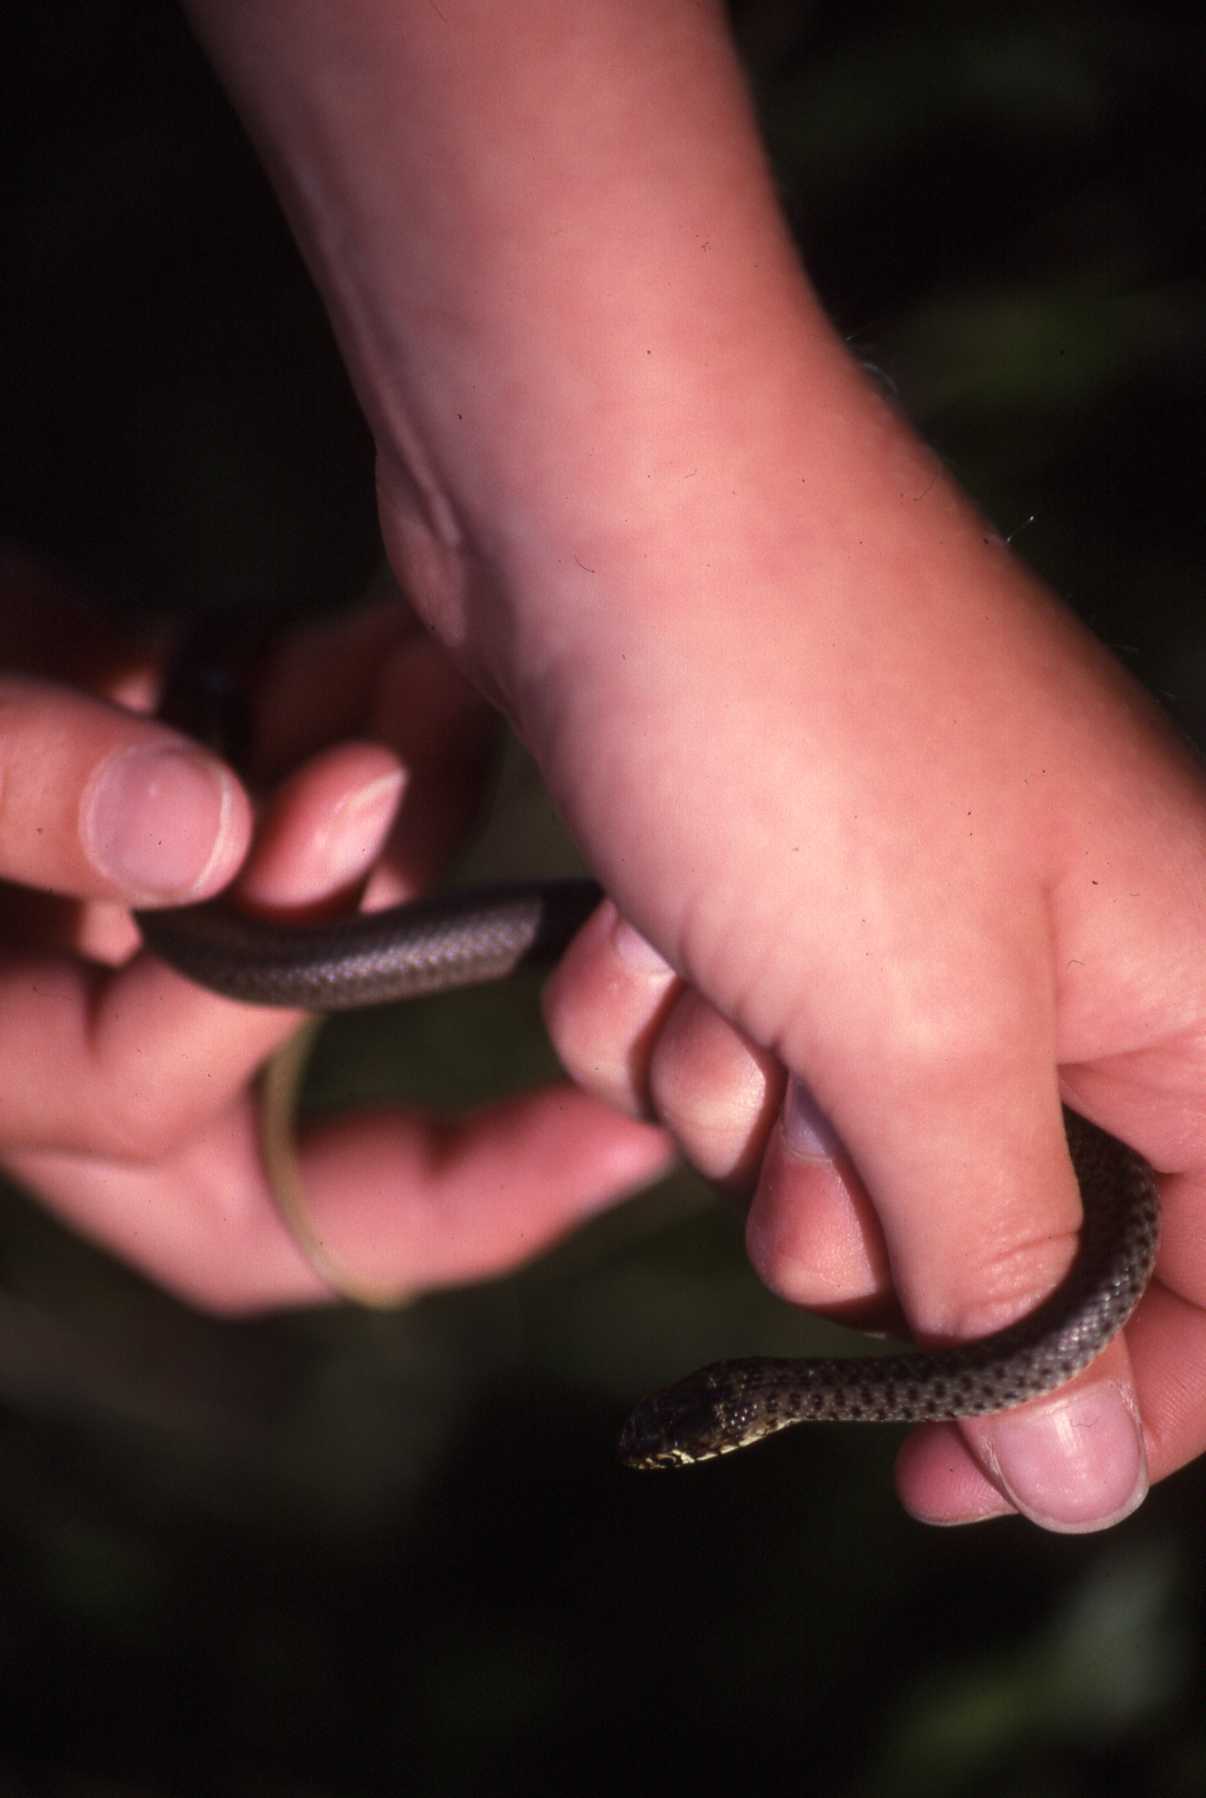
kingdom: Animalia
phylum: Chordata
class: Squamata
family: Colubridae
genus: Hierophis
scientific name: Hierophis gemonensis
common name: Balkan whip snake
